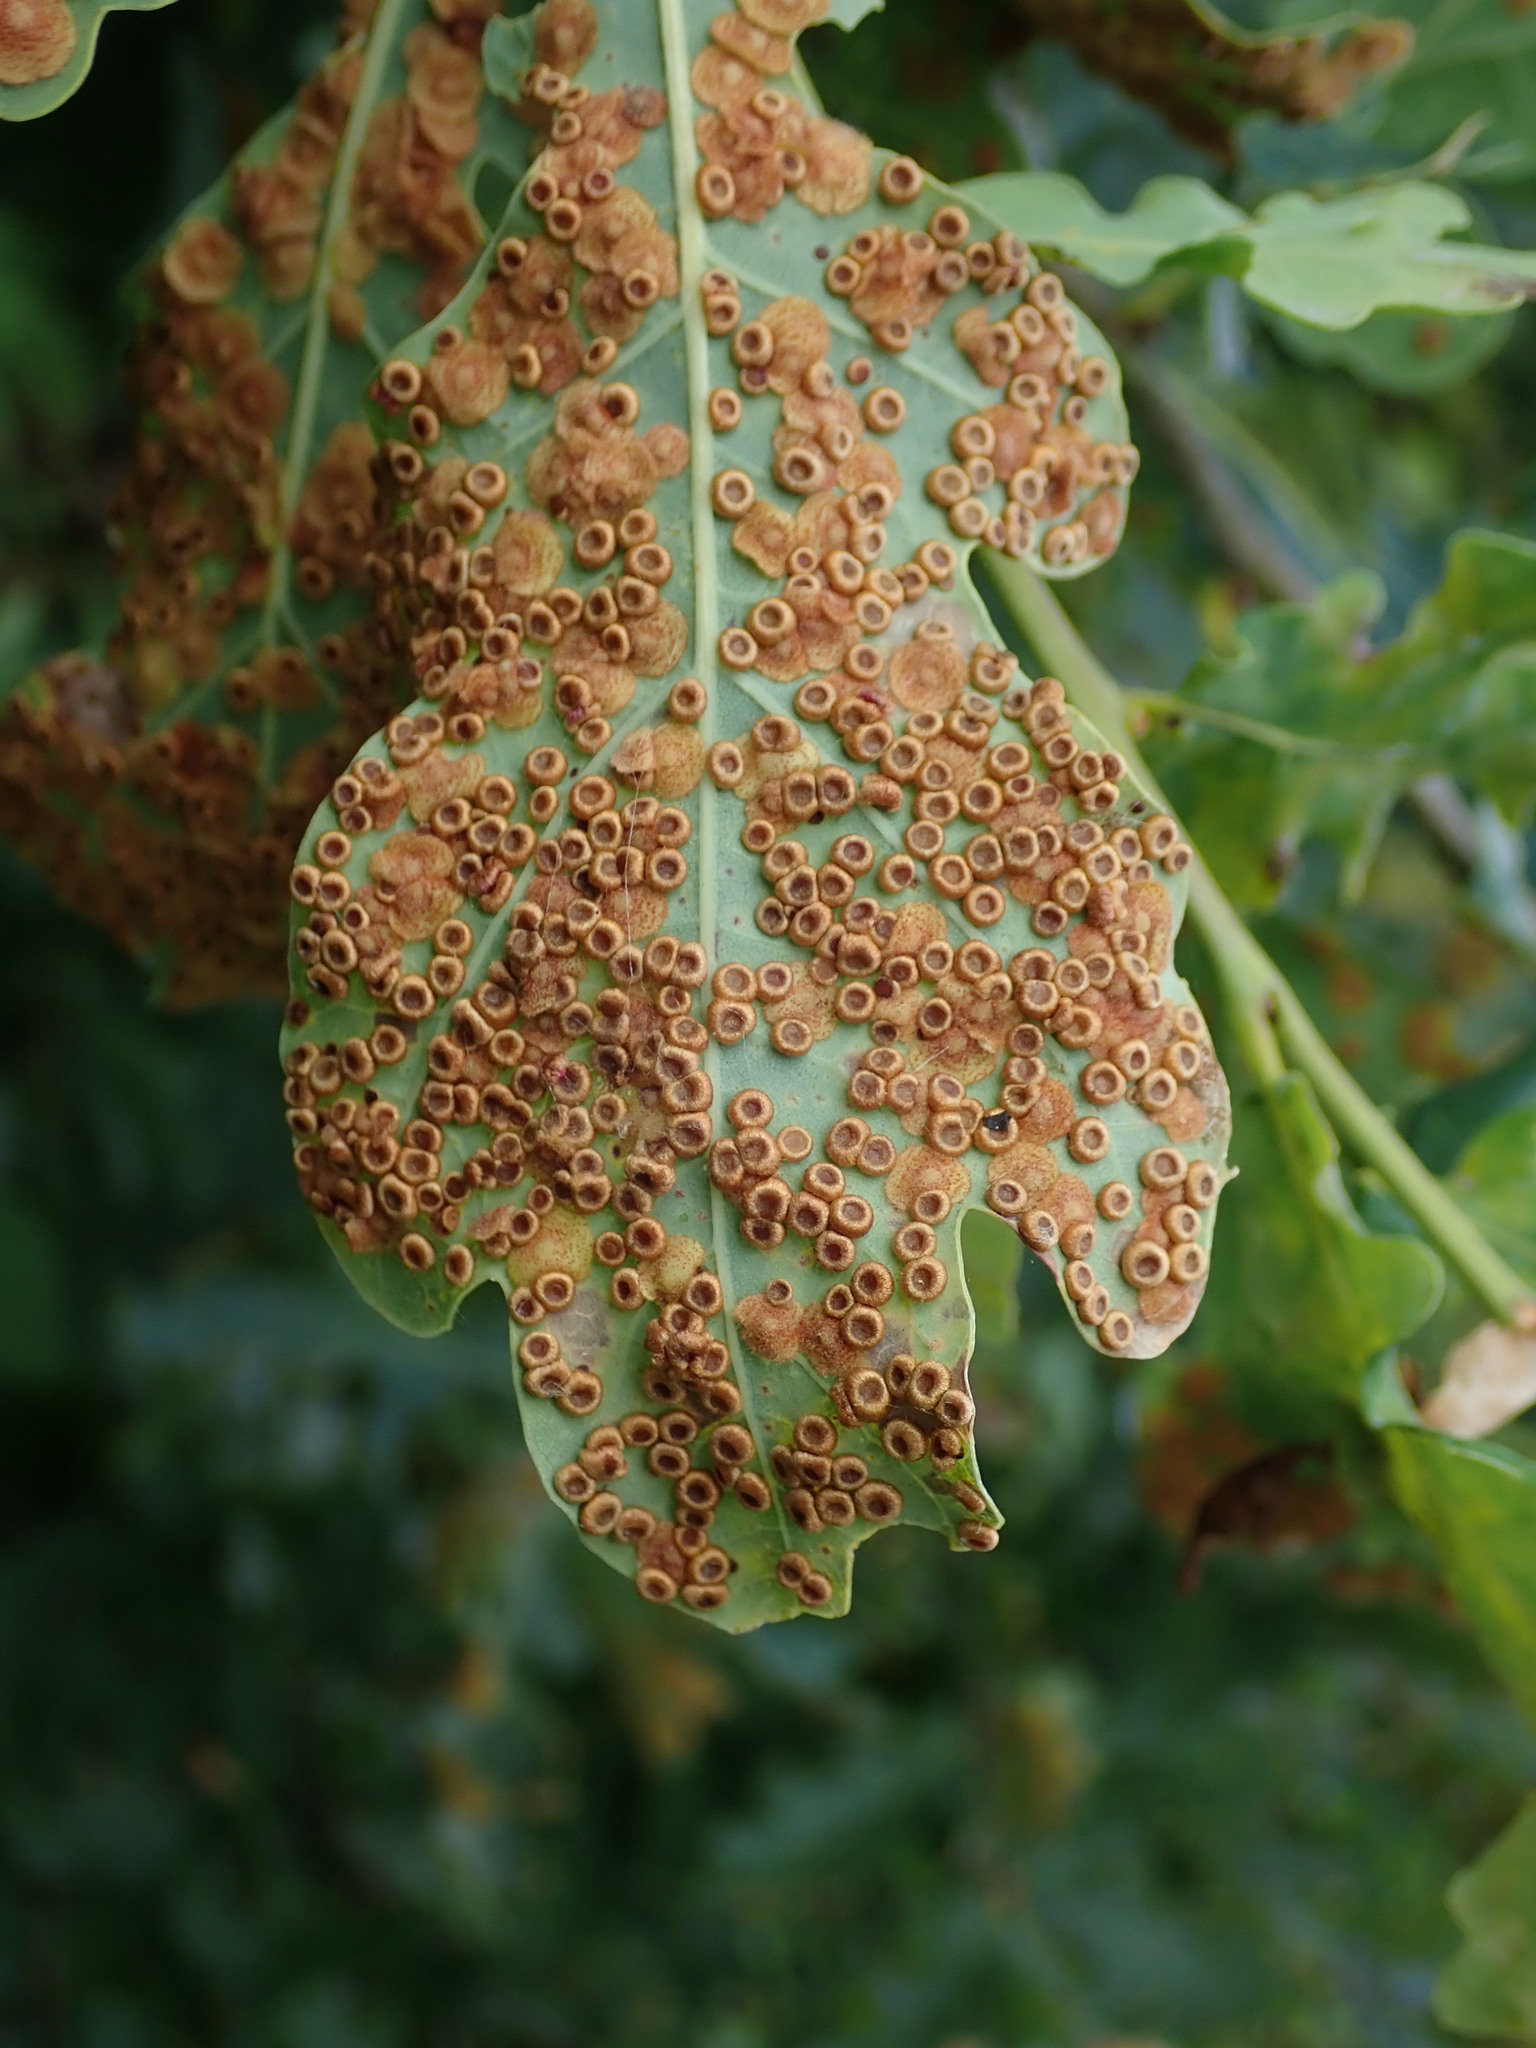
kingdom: Animalia
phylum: Arthropoda
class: Insecta
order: Hymenoptera
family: Cynipidae
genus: Neuroterus
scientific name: Neuroterus numismalis
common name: Silk-button spangle gall
